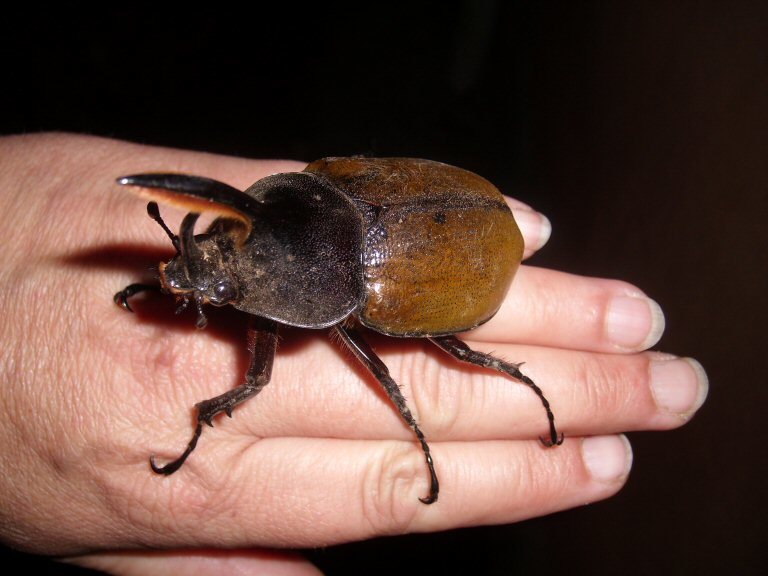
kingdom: Animalia
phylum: Arthropoda
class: Insecta
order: Coleoptera
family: Scarabaeidae
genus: Dynastes
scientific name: Dynastes
